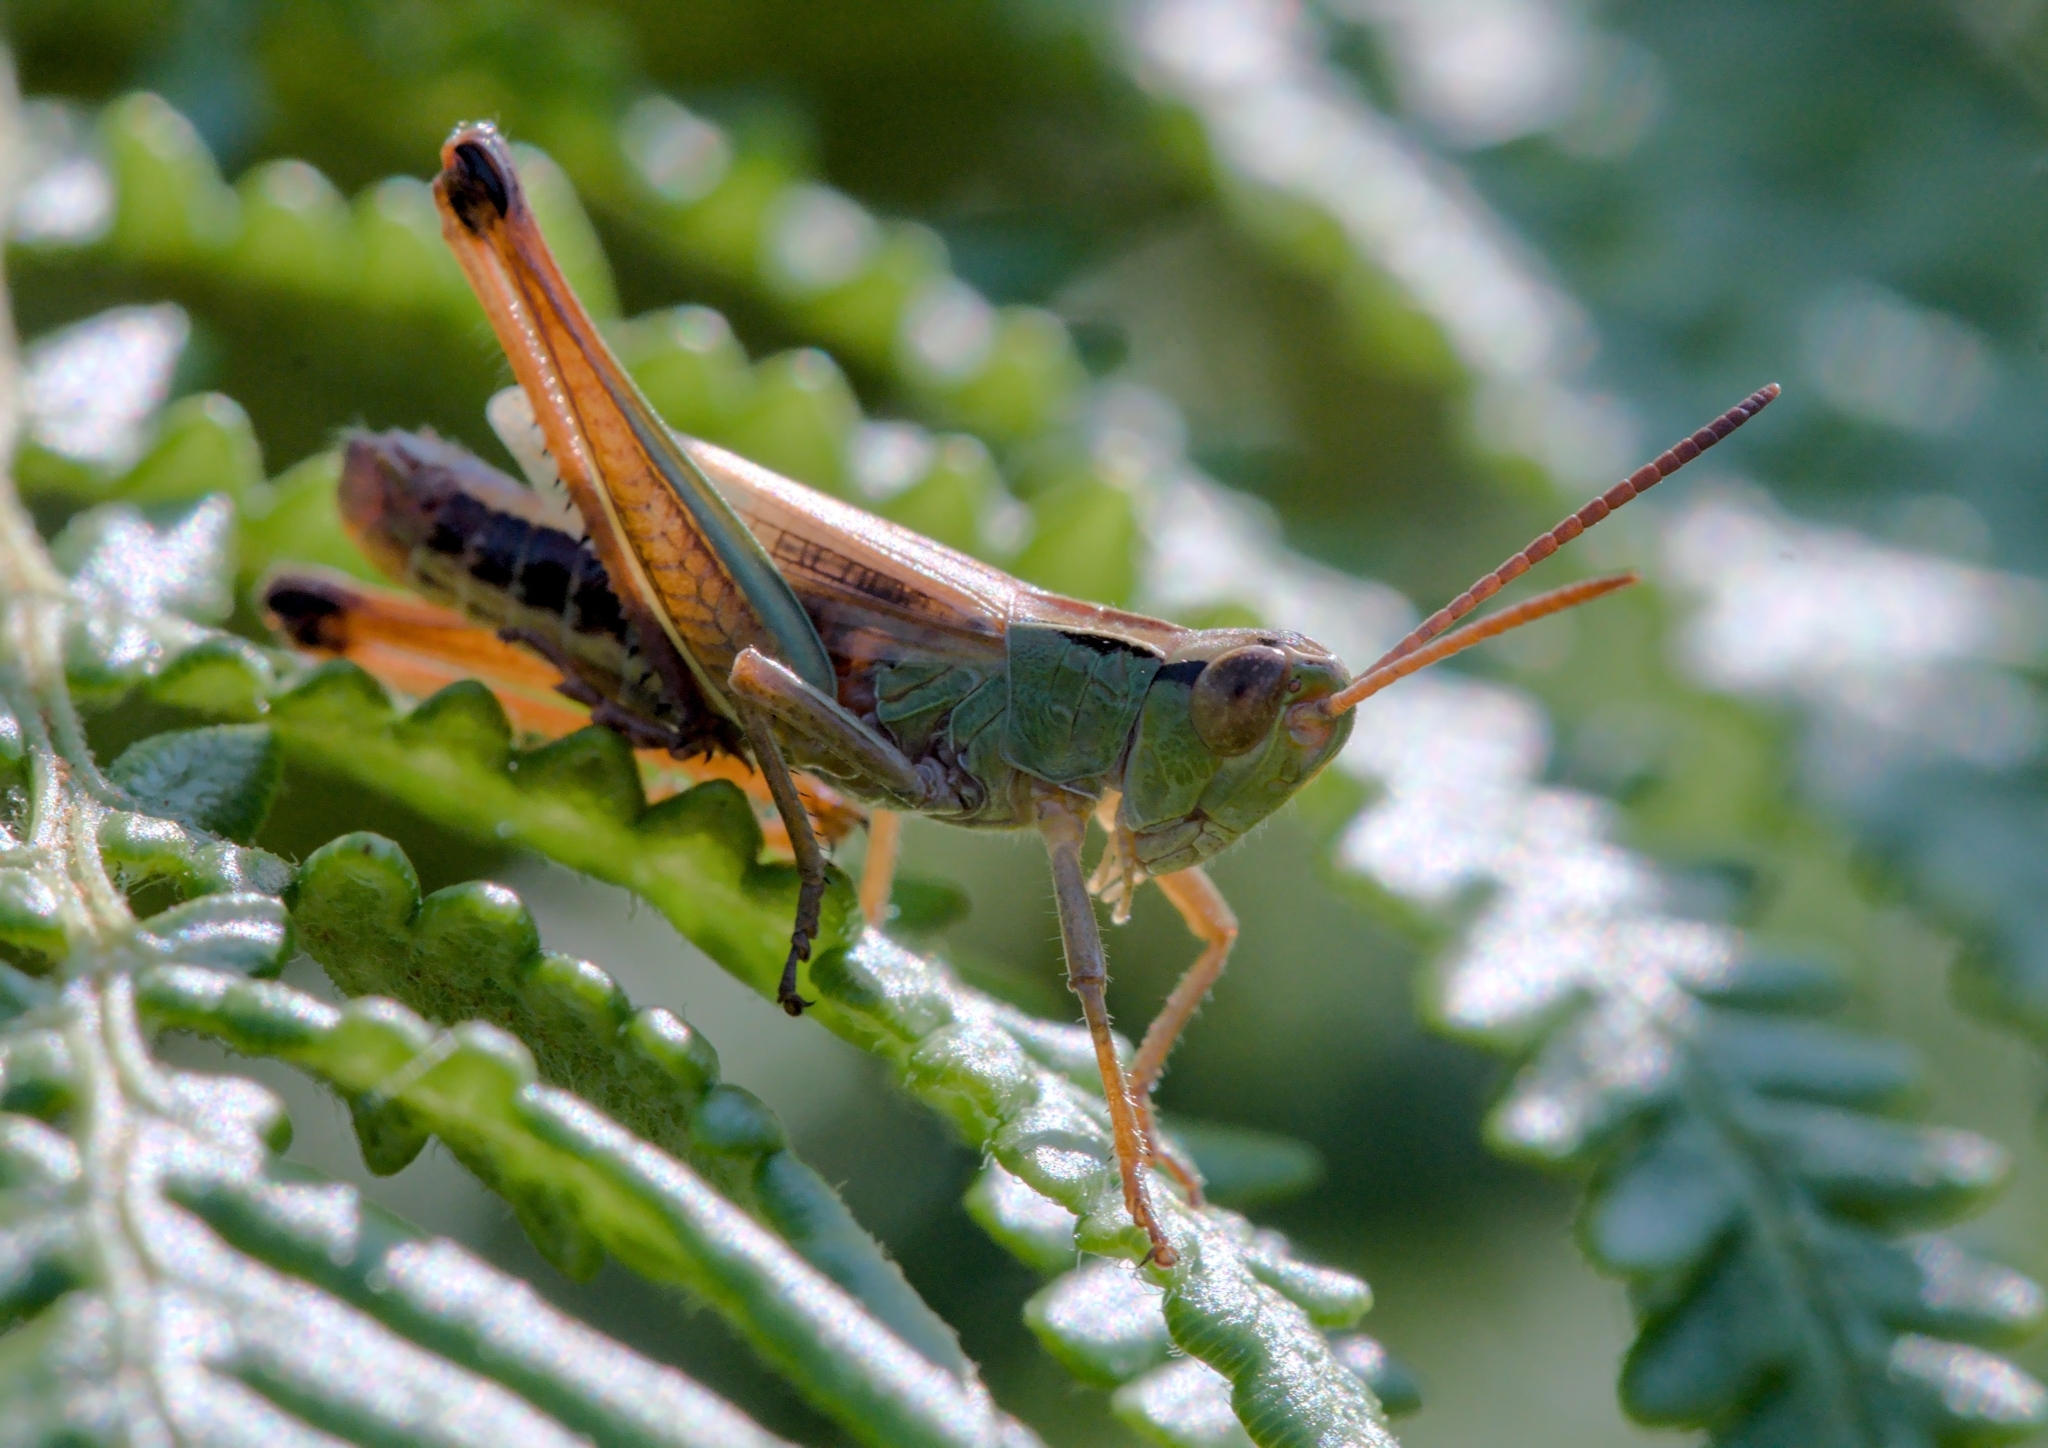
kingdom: Animalia
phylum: Arthropoda
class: Insecta
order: Orthoptera
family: Acrididae
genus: Pseudochorthippus
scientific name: Pseudochorthippus parallelus
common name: Meadow grasshopper
